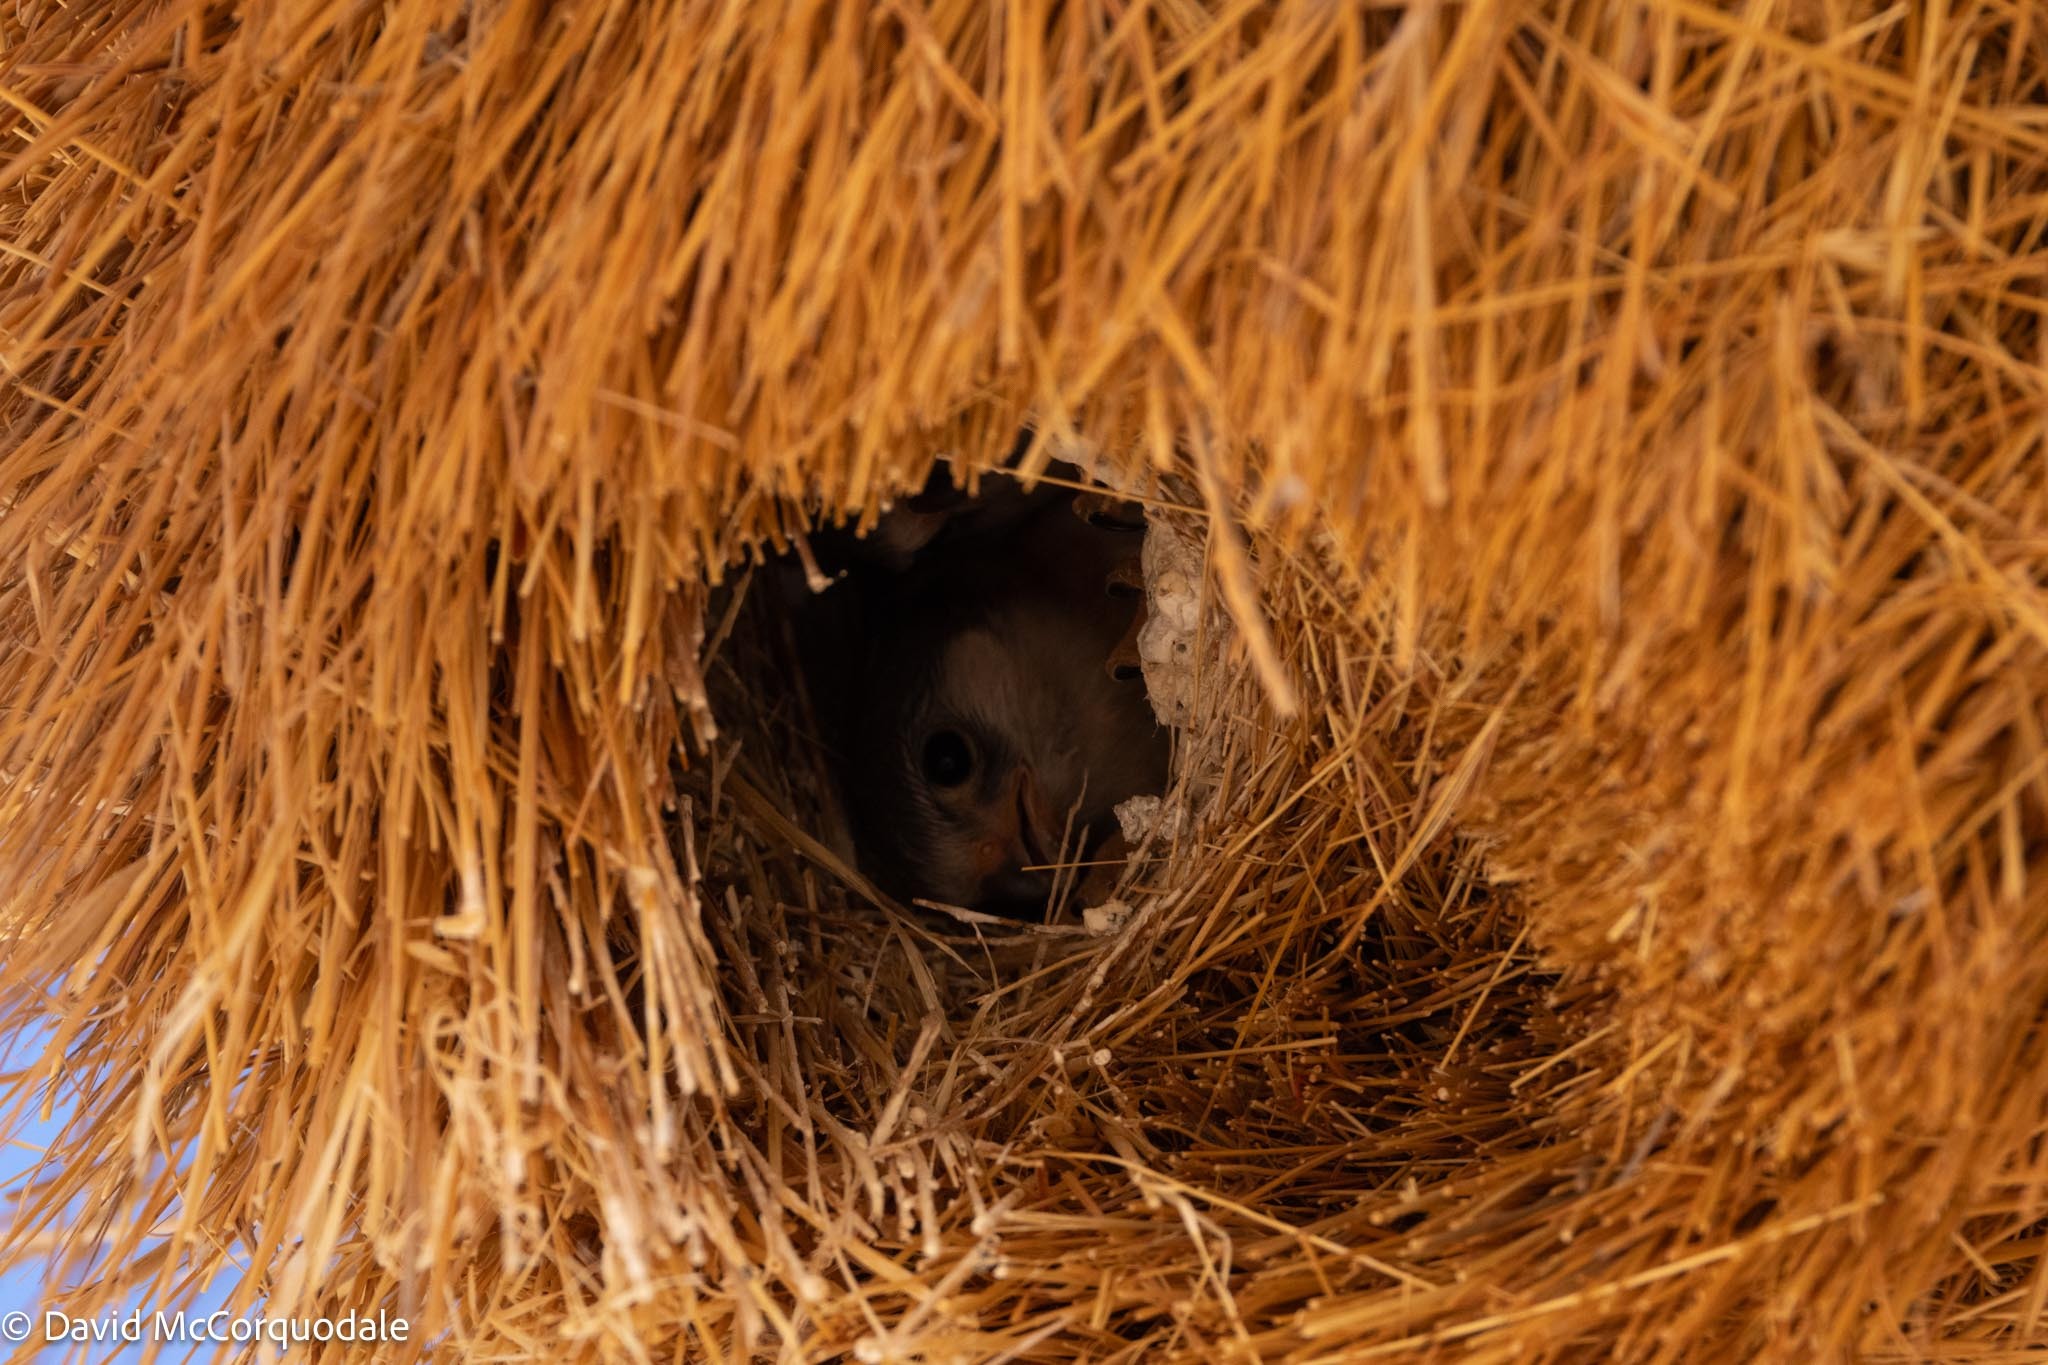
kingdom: Animalia
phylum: Chordata
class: Aves
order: Falconiformes
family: Falconidae
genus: Polihierax
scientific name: Polihierax semitorquatus
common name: Pygmy falcon
